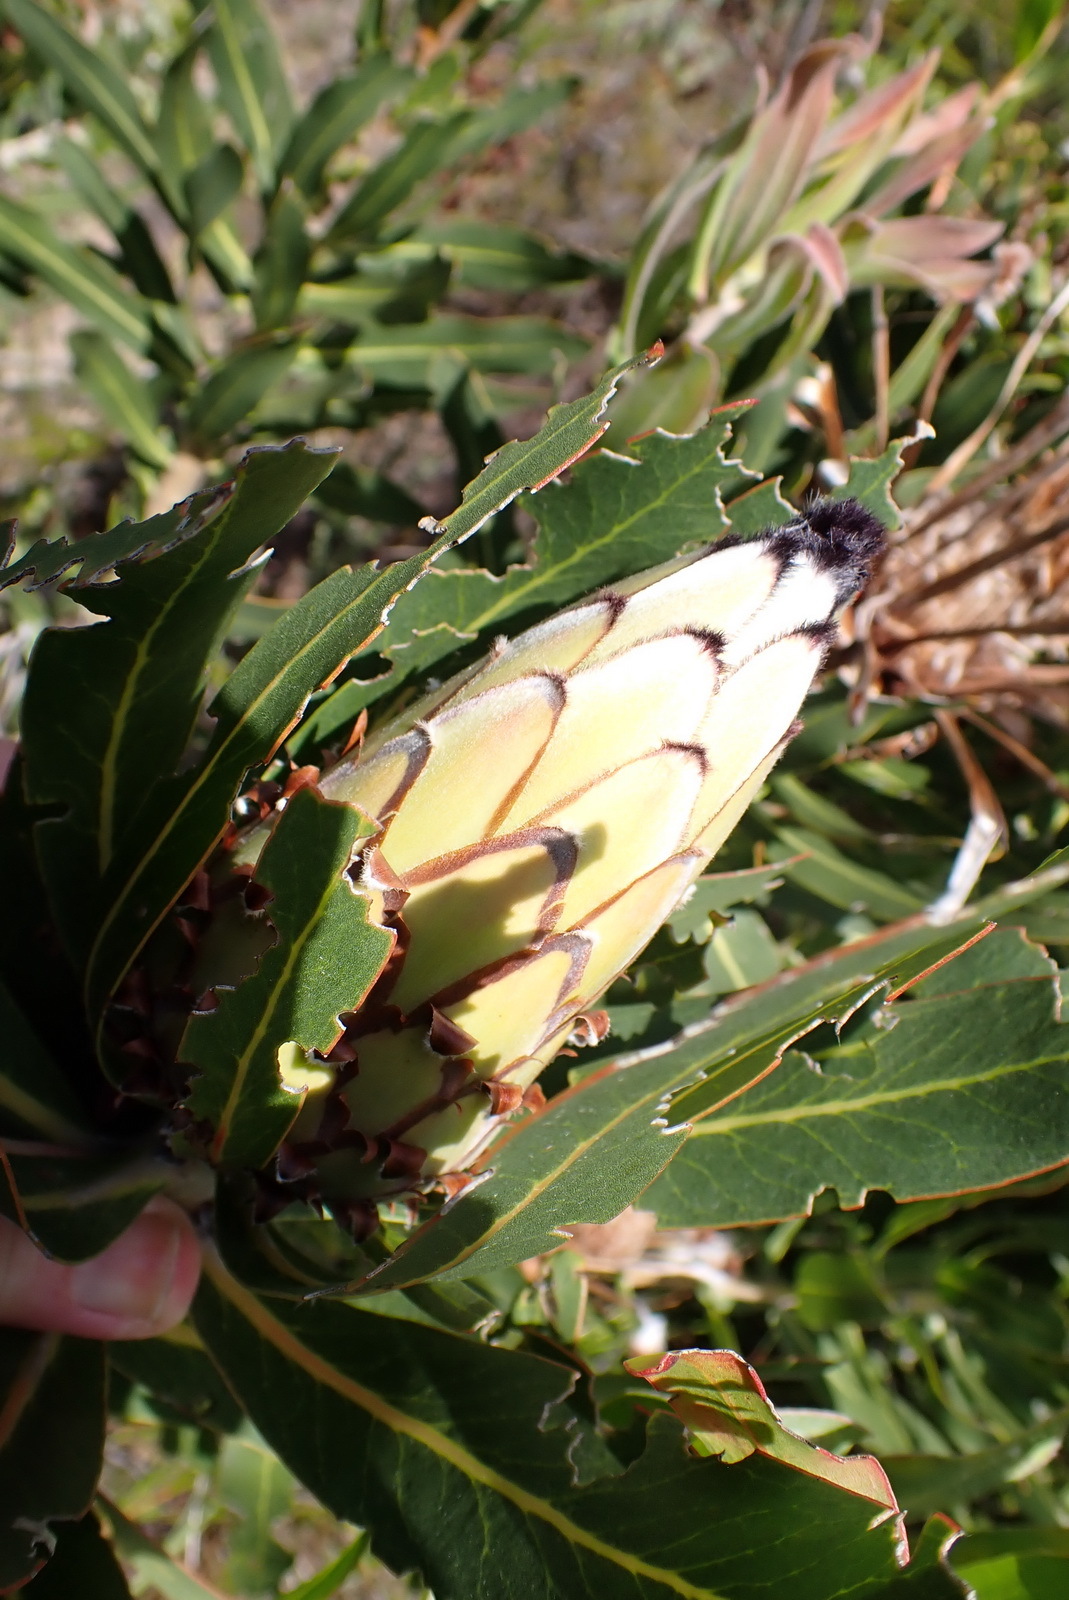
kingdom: Plantae
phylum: Tracheophyta
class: Magnoliopsida
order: Proteales
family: Proteaceae
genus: Protea
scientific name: Protea neriifolia
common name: Blue sugarbush
